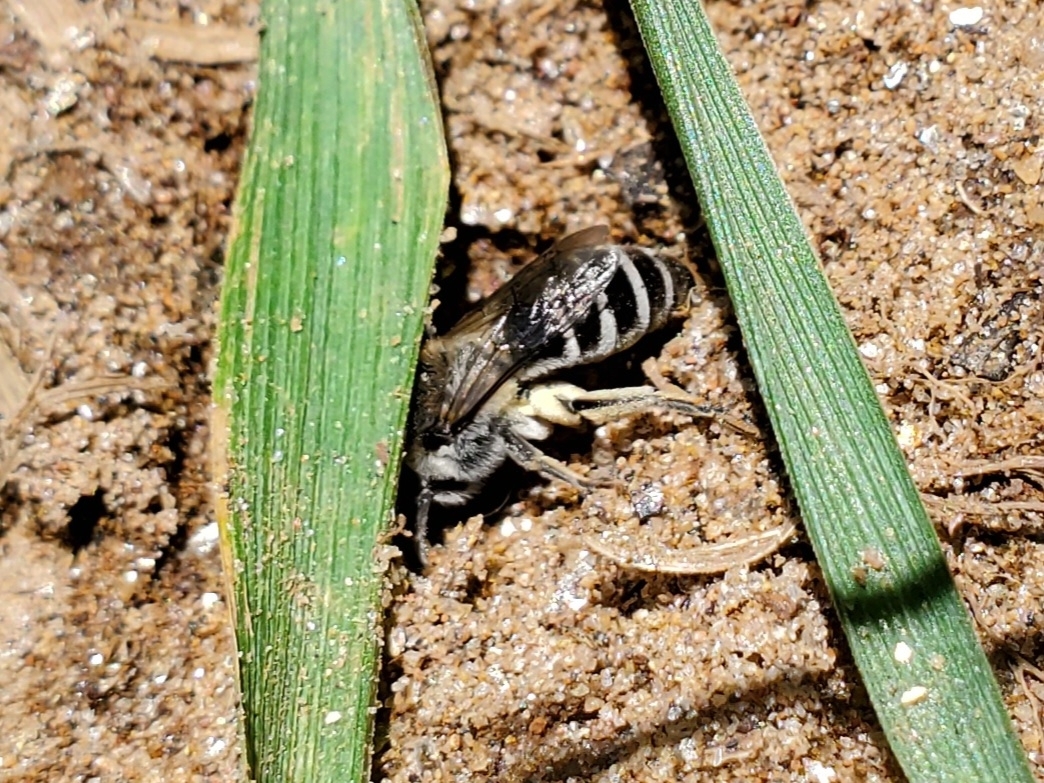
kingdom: Animalia
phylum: Arthropoda
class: Insecta
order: Hymenoptera
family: Colletidae
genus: Colletes
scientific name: Colletes productus
